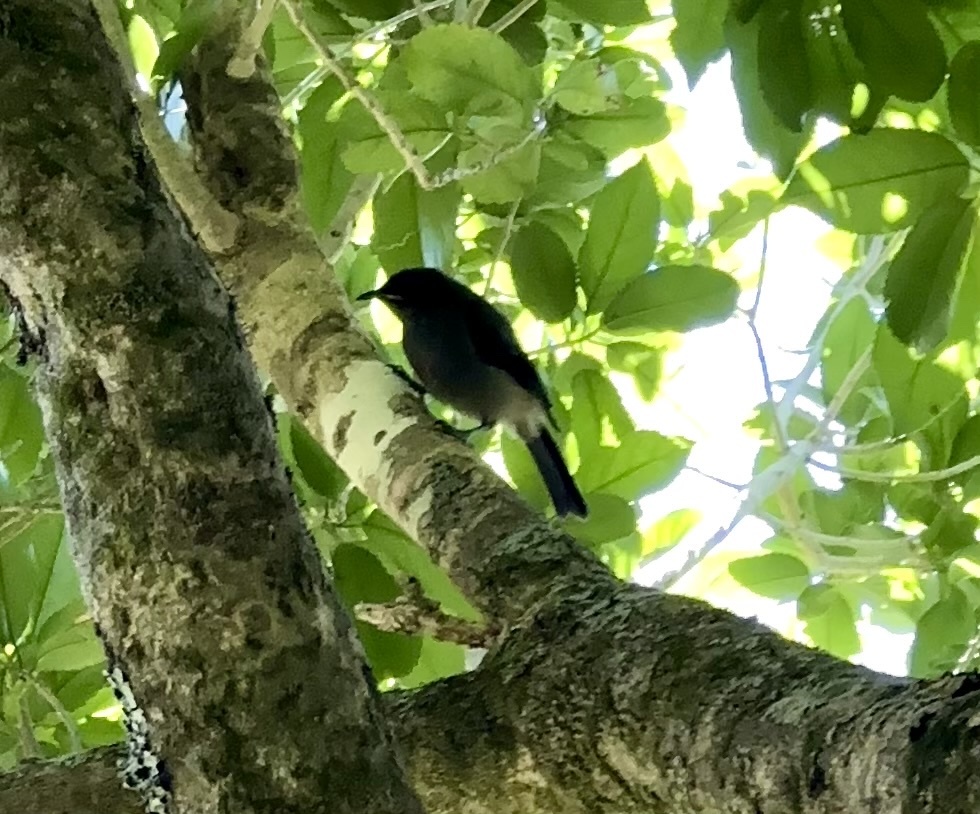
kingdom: Animalia
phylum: Chordata
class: Aves
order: Passeriformes
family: Meliphagidae
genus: Anthornis
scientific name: Anthornis melanura
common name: New zealand bellbird
